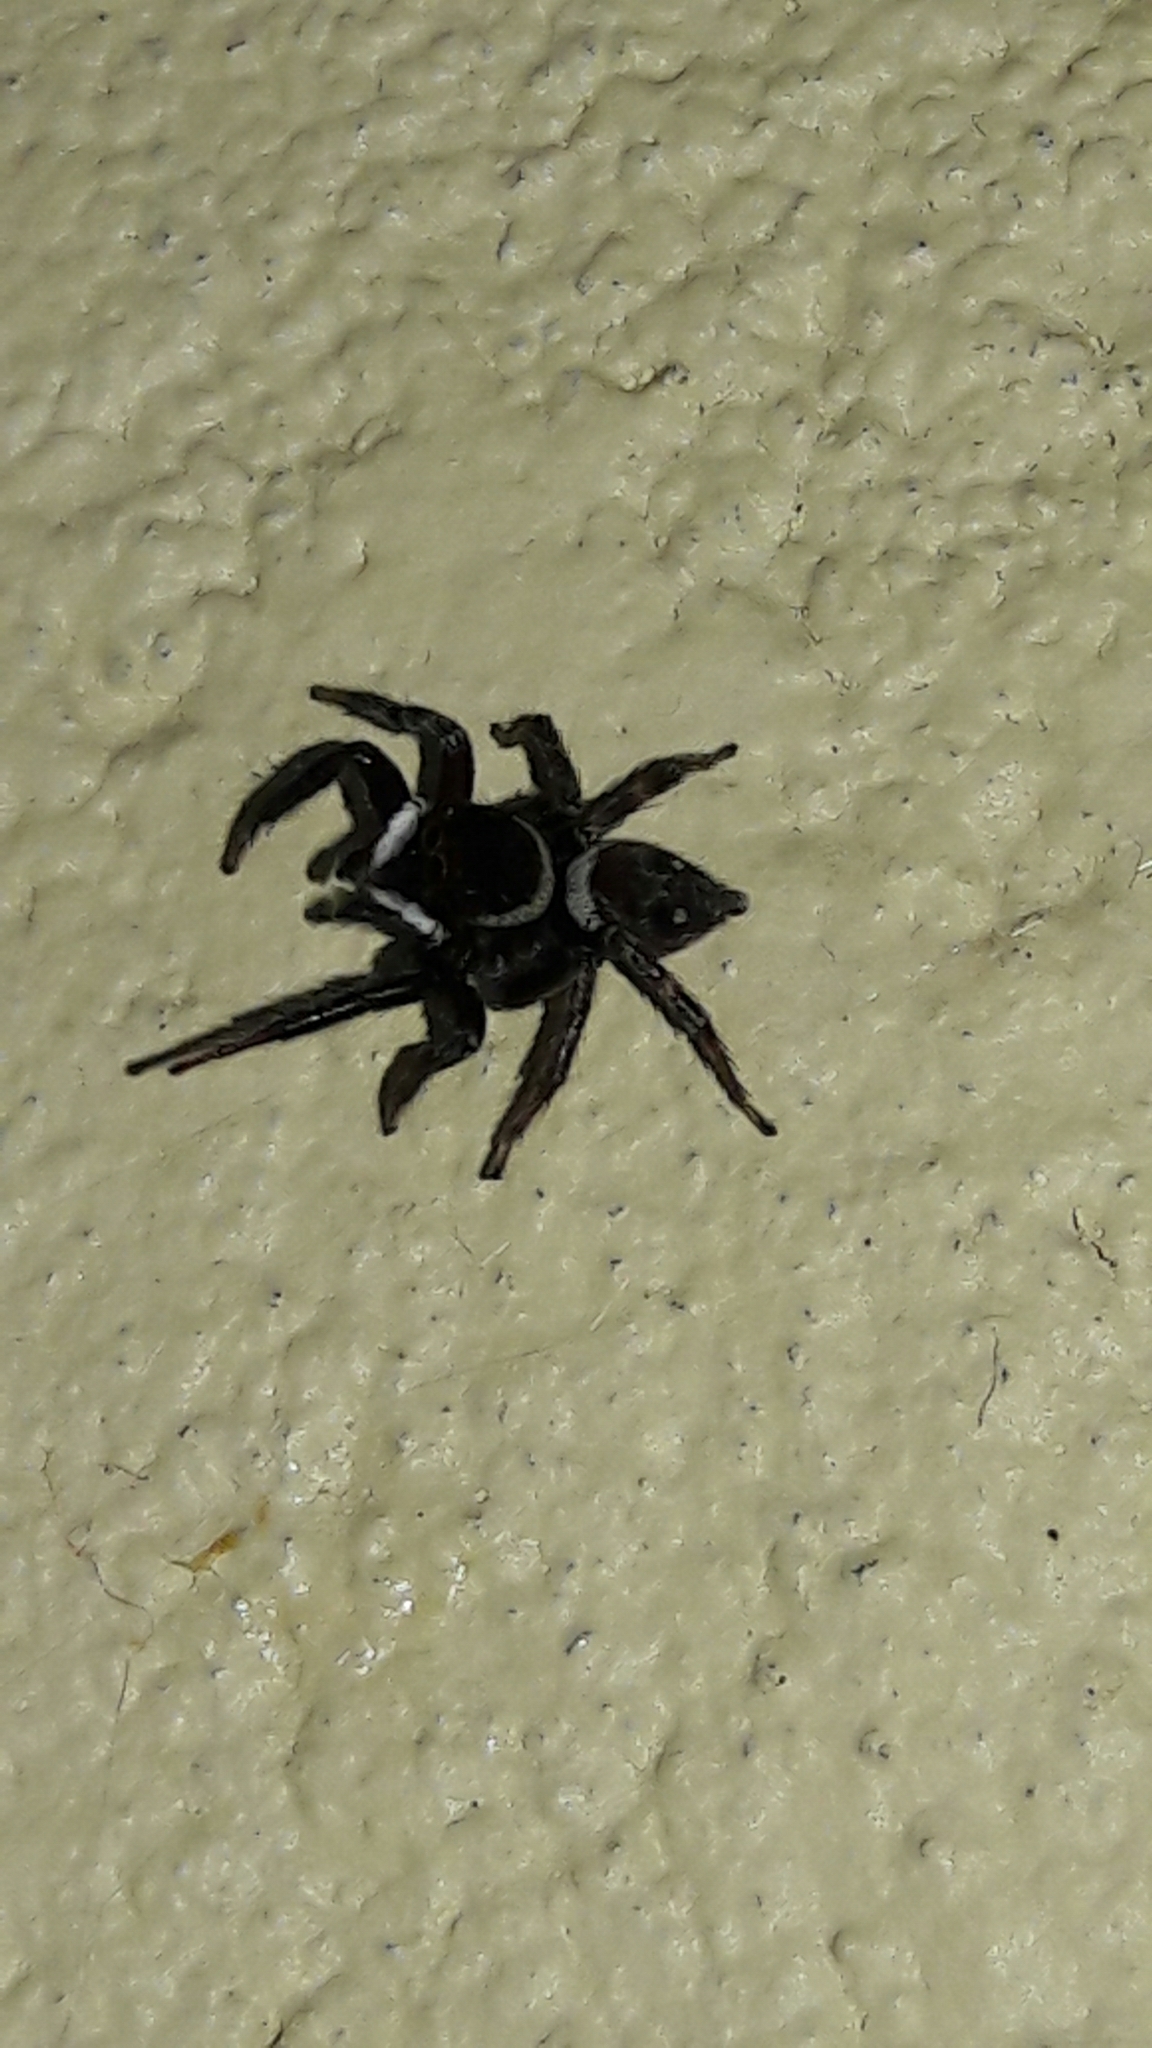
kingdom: Animalia
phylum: Arthropoda
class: Arachnida
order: Araneae
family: Salticidae
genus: Hasarius
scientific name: Hasarius adansoni
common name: Jumping spider
